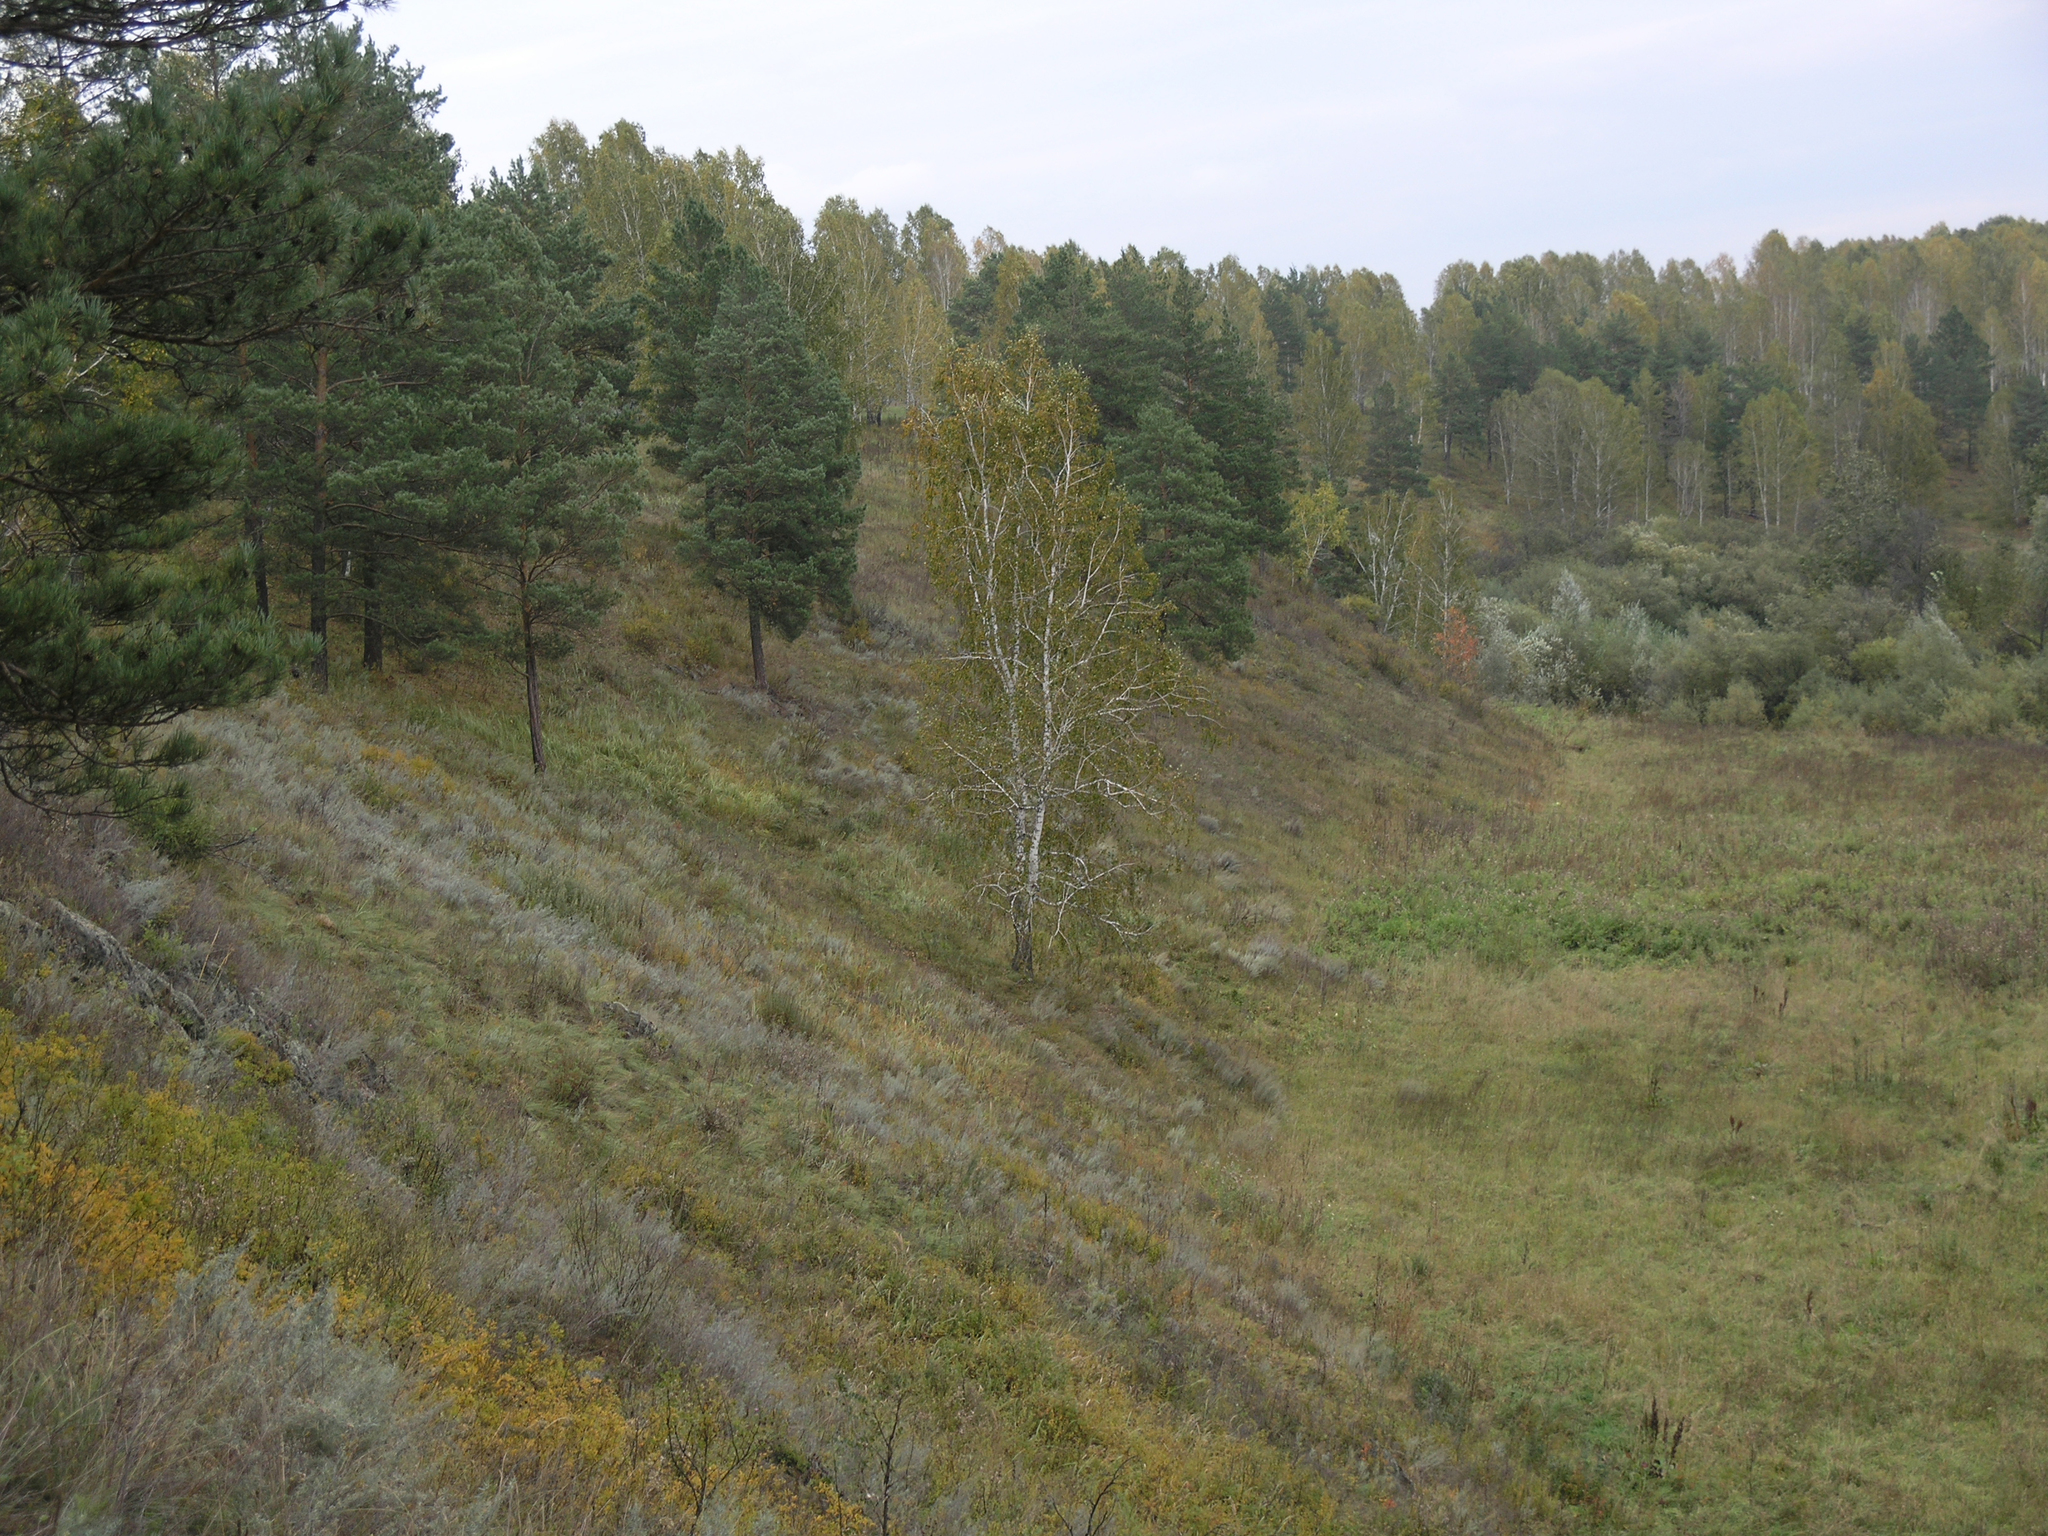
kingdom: Plantae
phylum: Tracheophyta
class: Magnoliopsida
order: Fagales
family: Betulaceae
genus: Betula
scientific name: Betula pendula
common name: Silver birch
